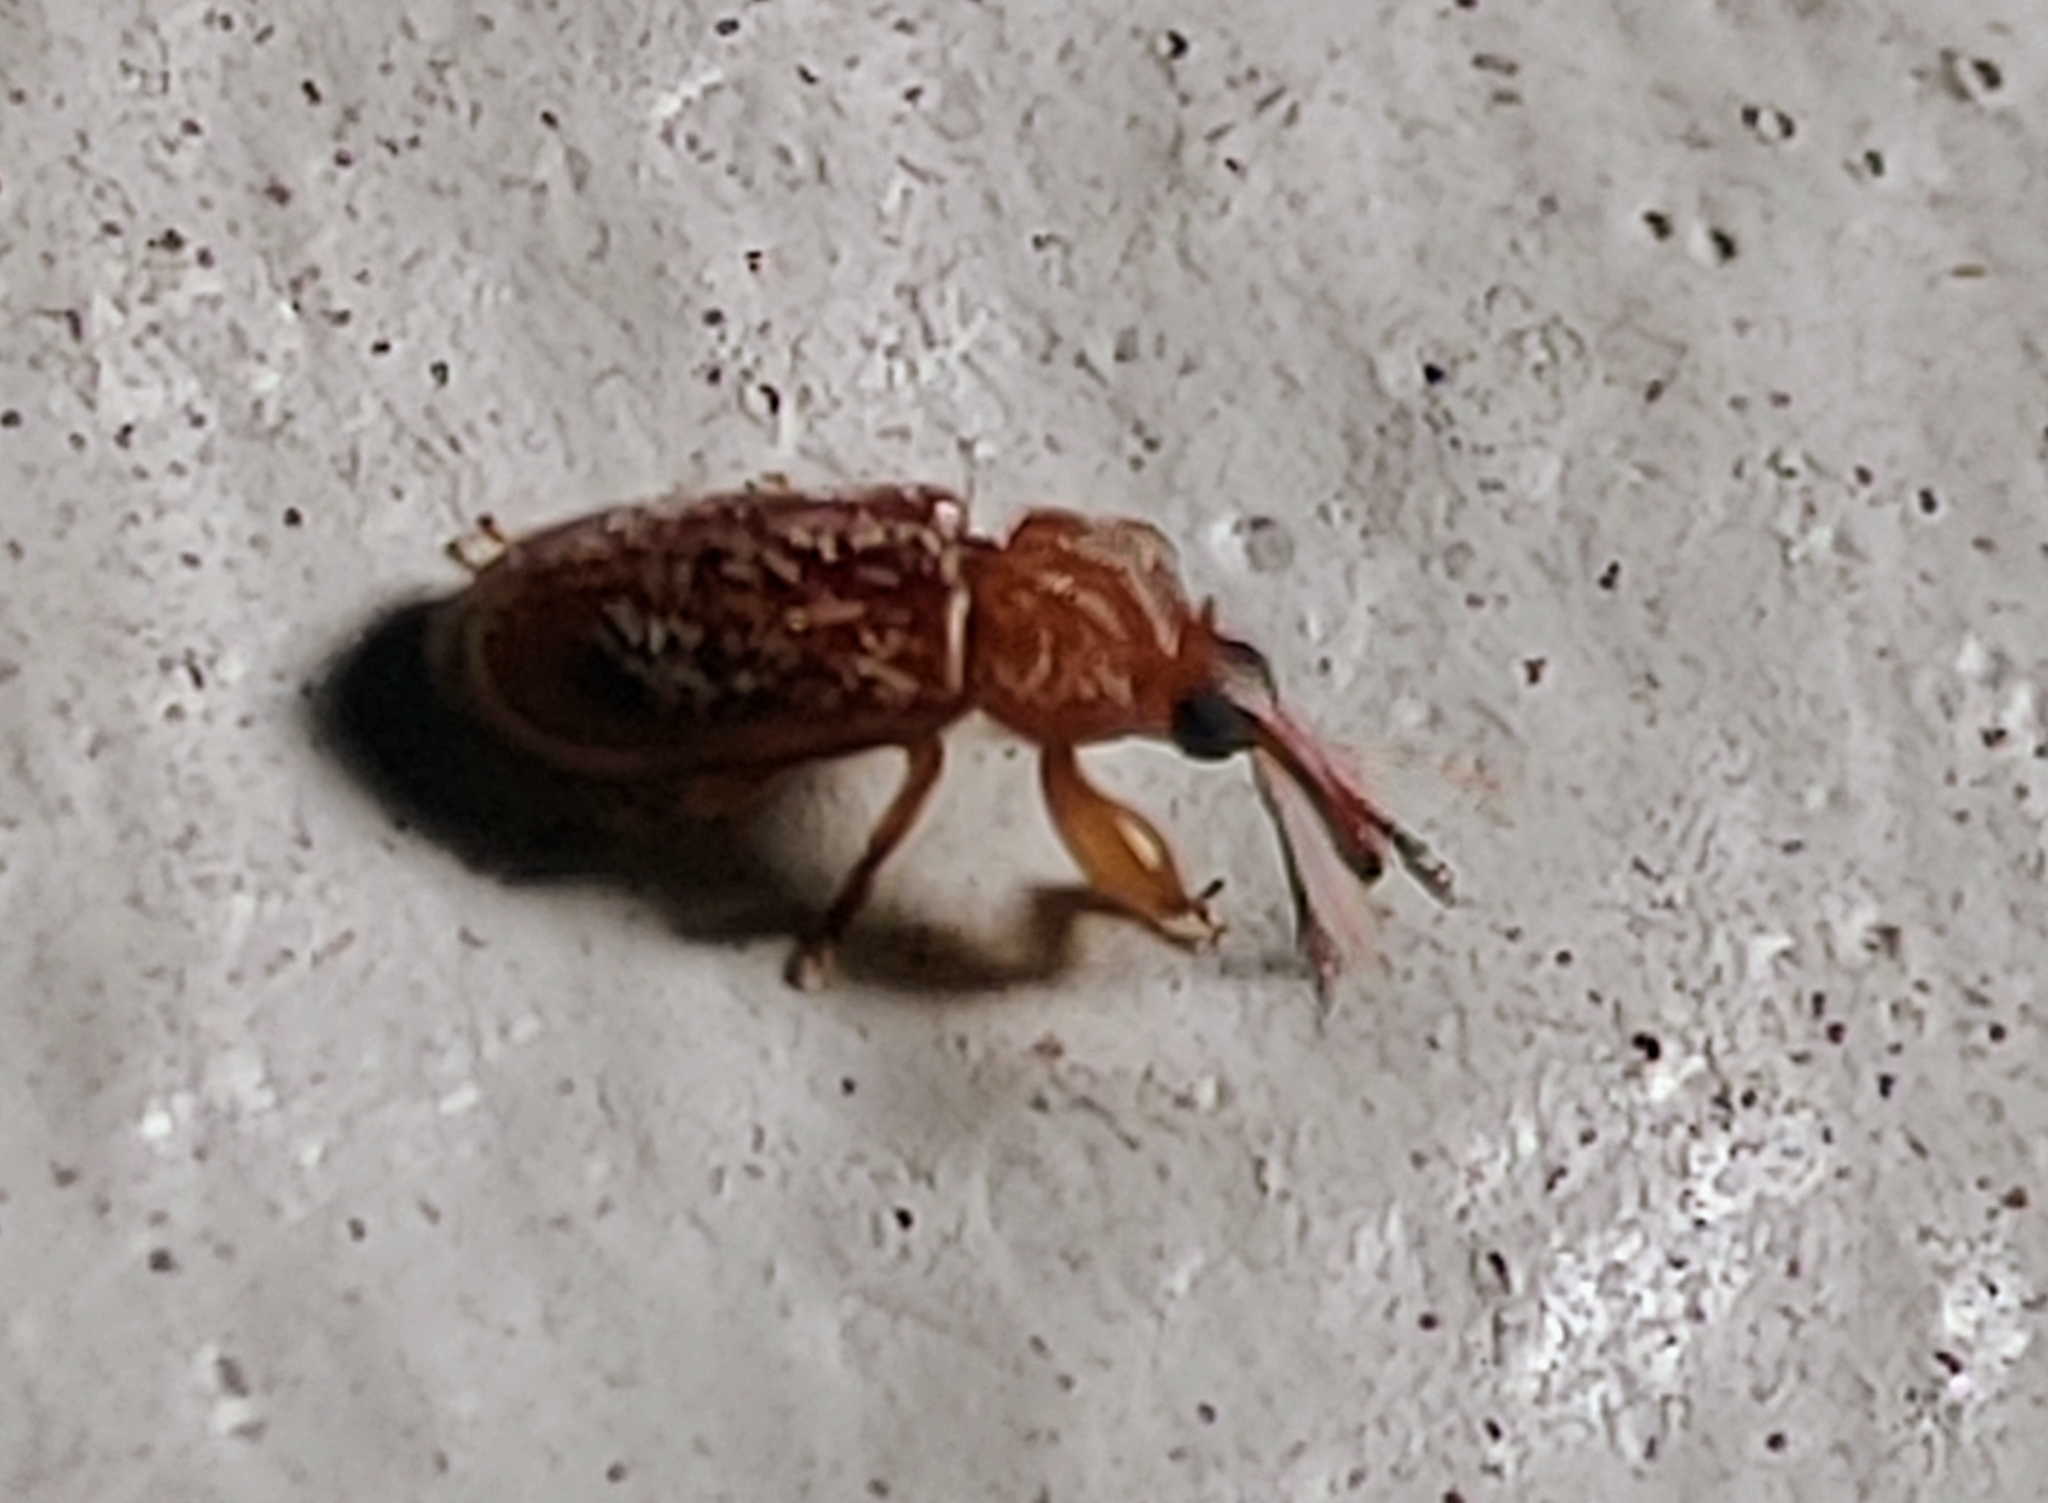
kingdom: Animalia
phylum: Arthropoda
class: Insecta
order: Coleoptera
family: Belidae
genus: Rhopalotria
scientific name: Rhopalotria furfuracea
